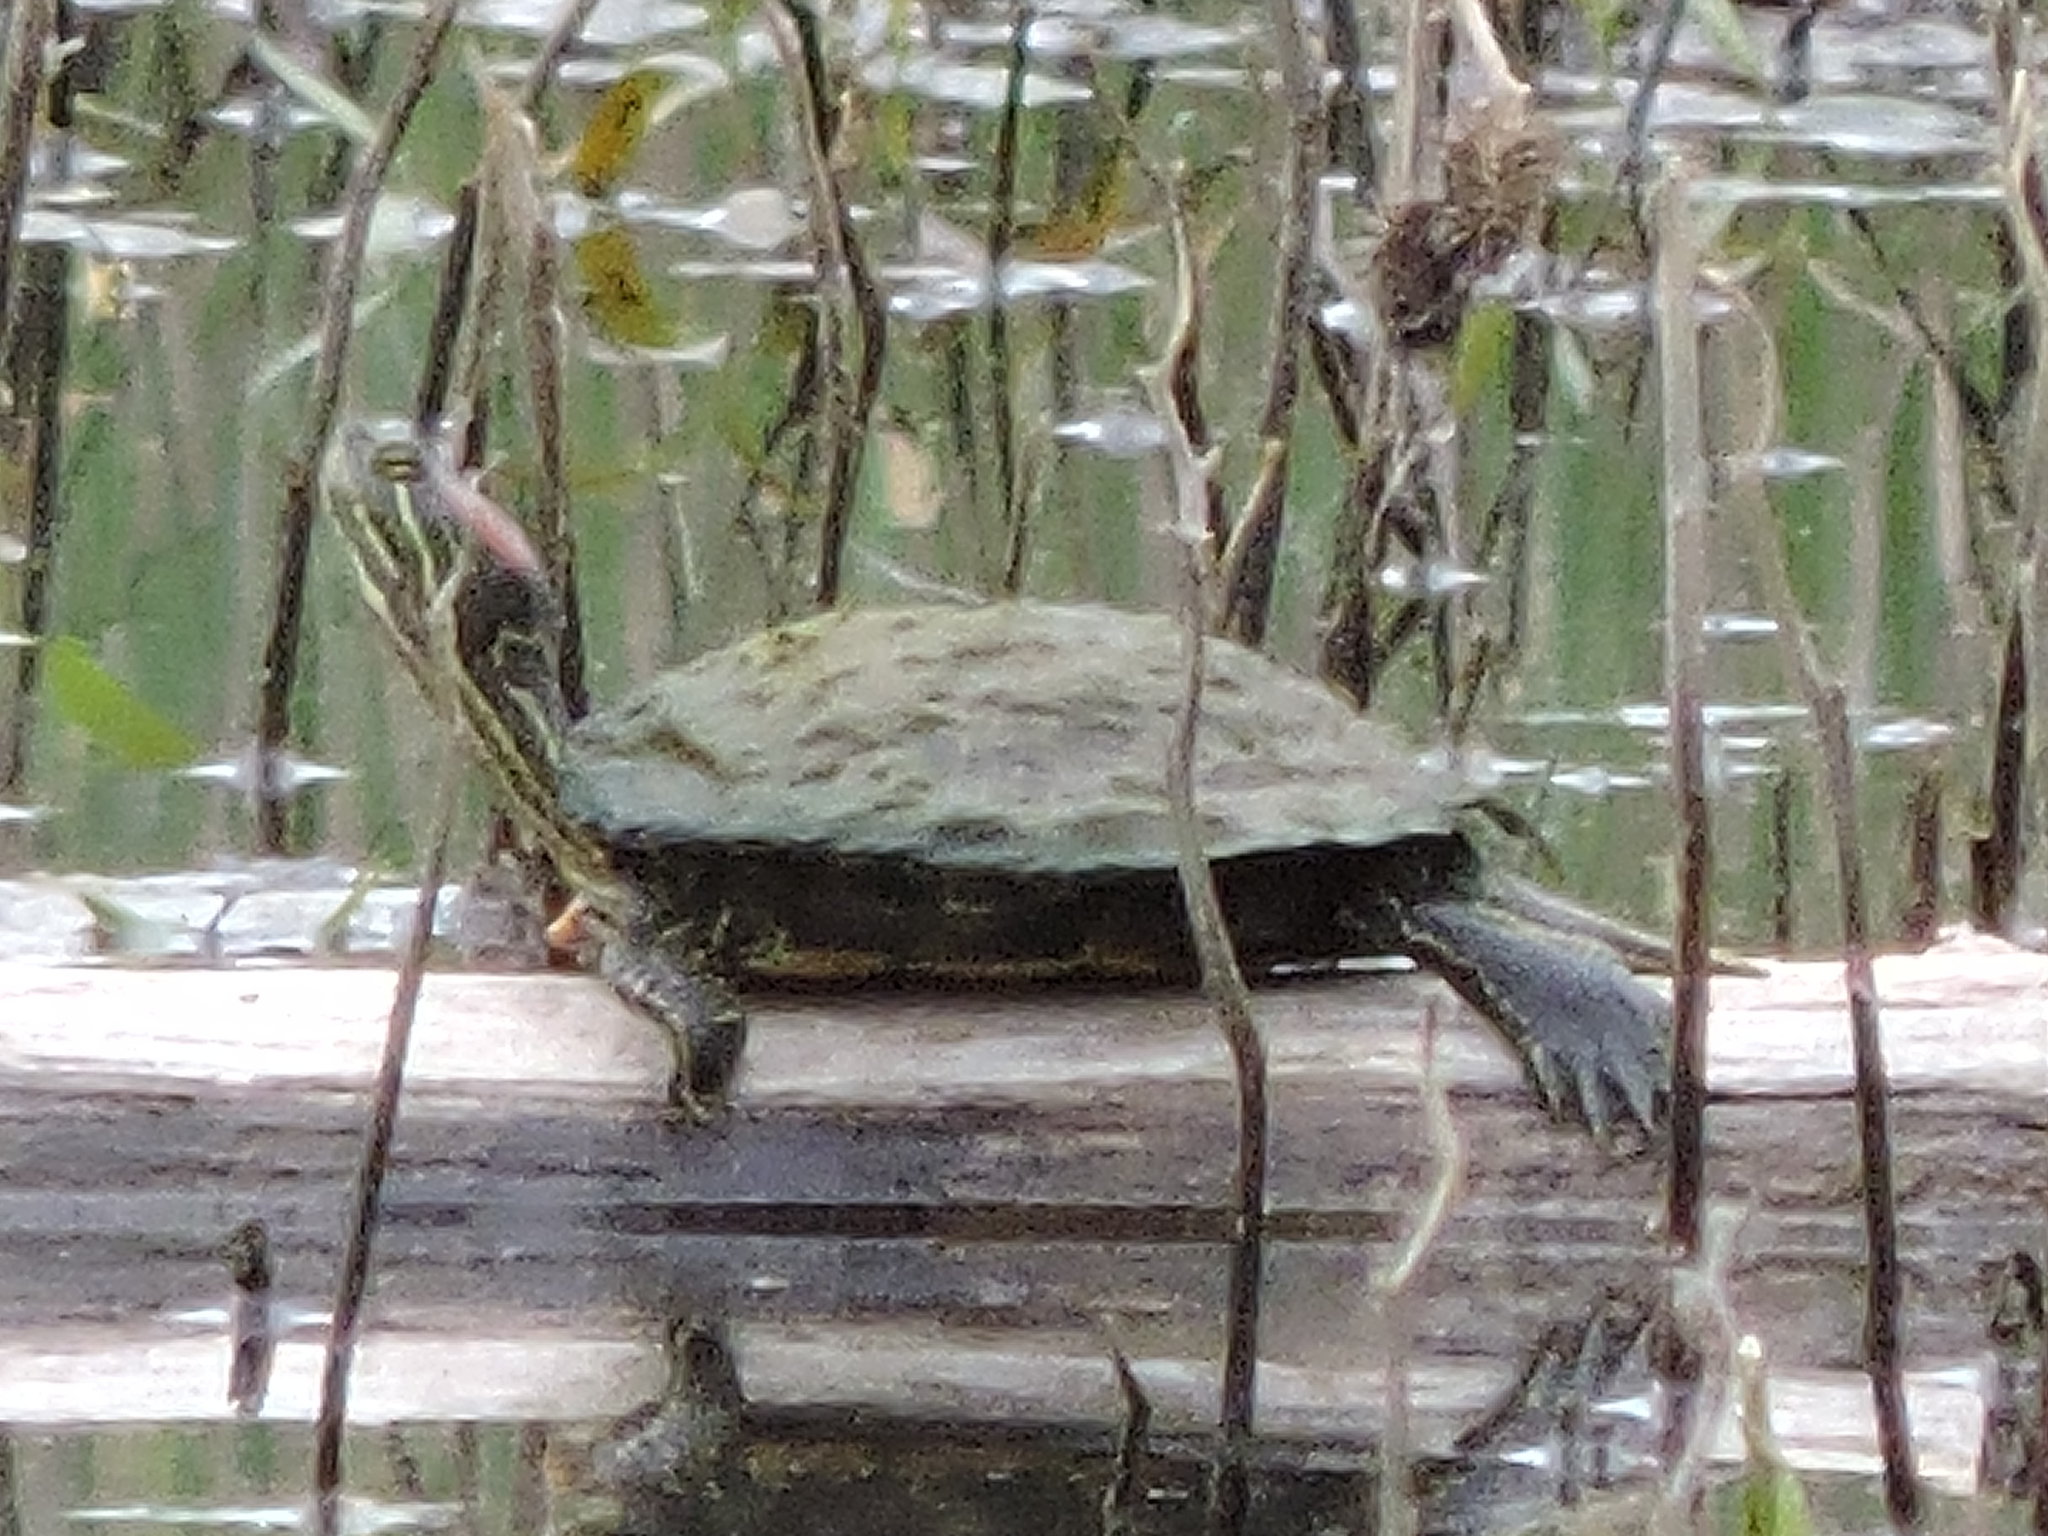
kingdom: Animalia
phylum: Chordata
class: Testudines
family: Emydidae
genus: Trachemys
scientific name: Trachemys scripta
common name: Slider
